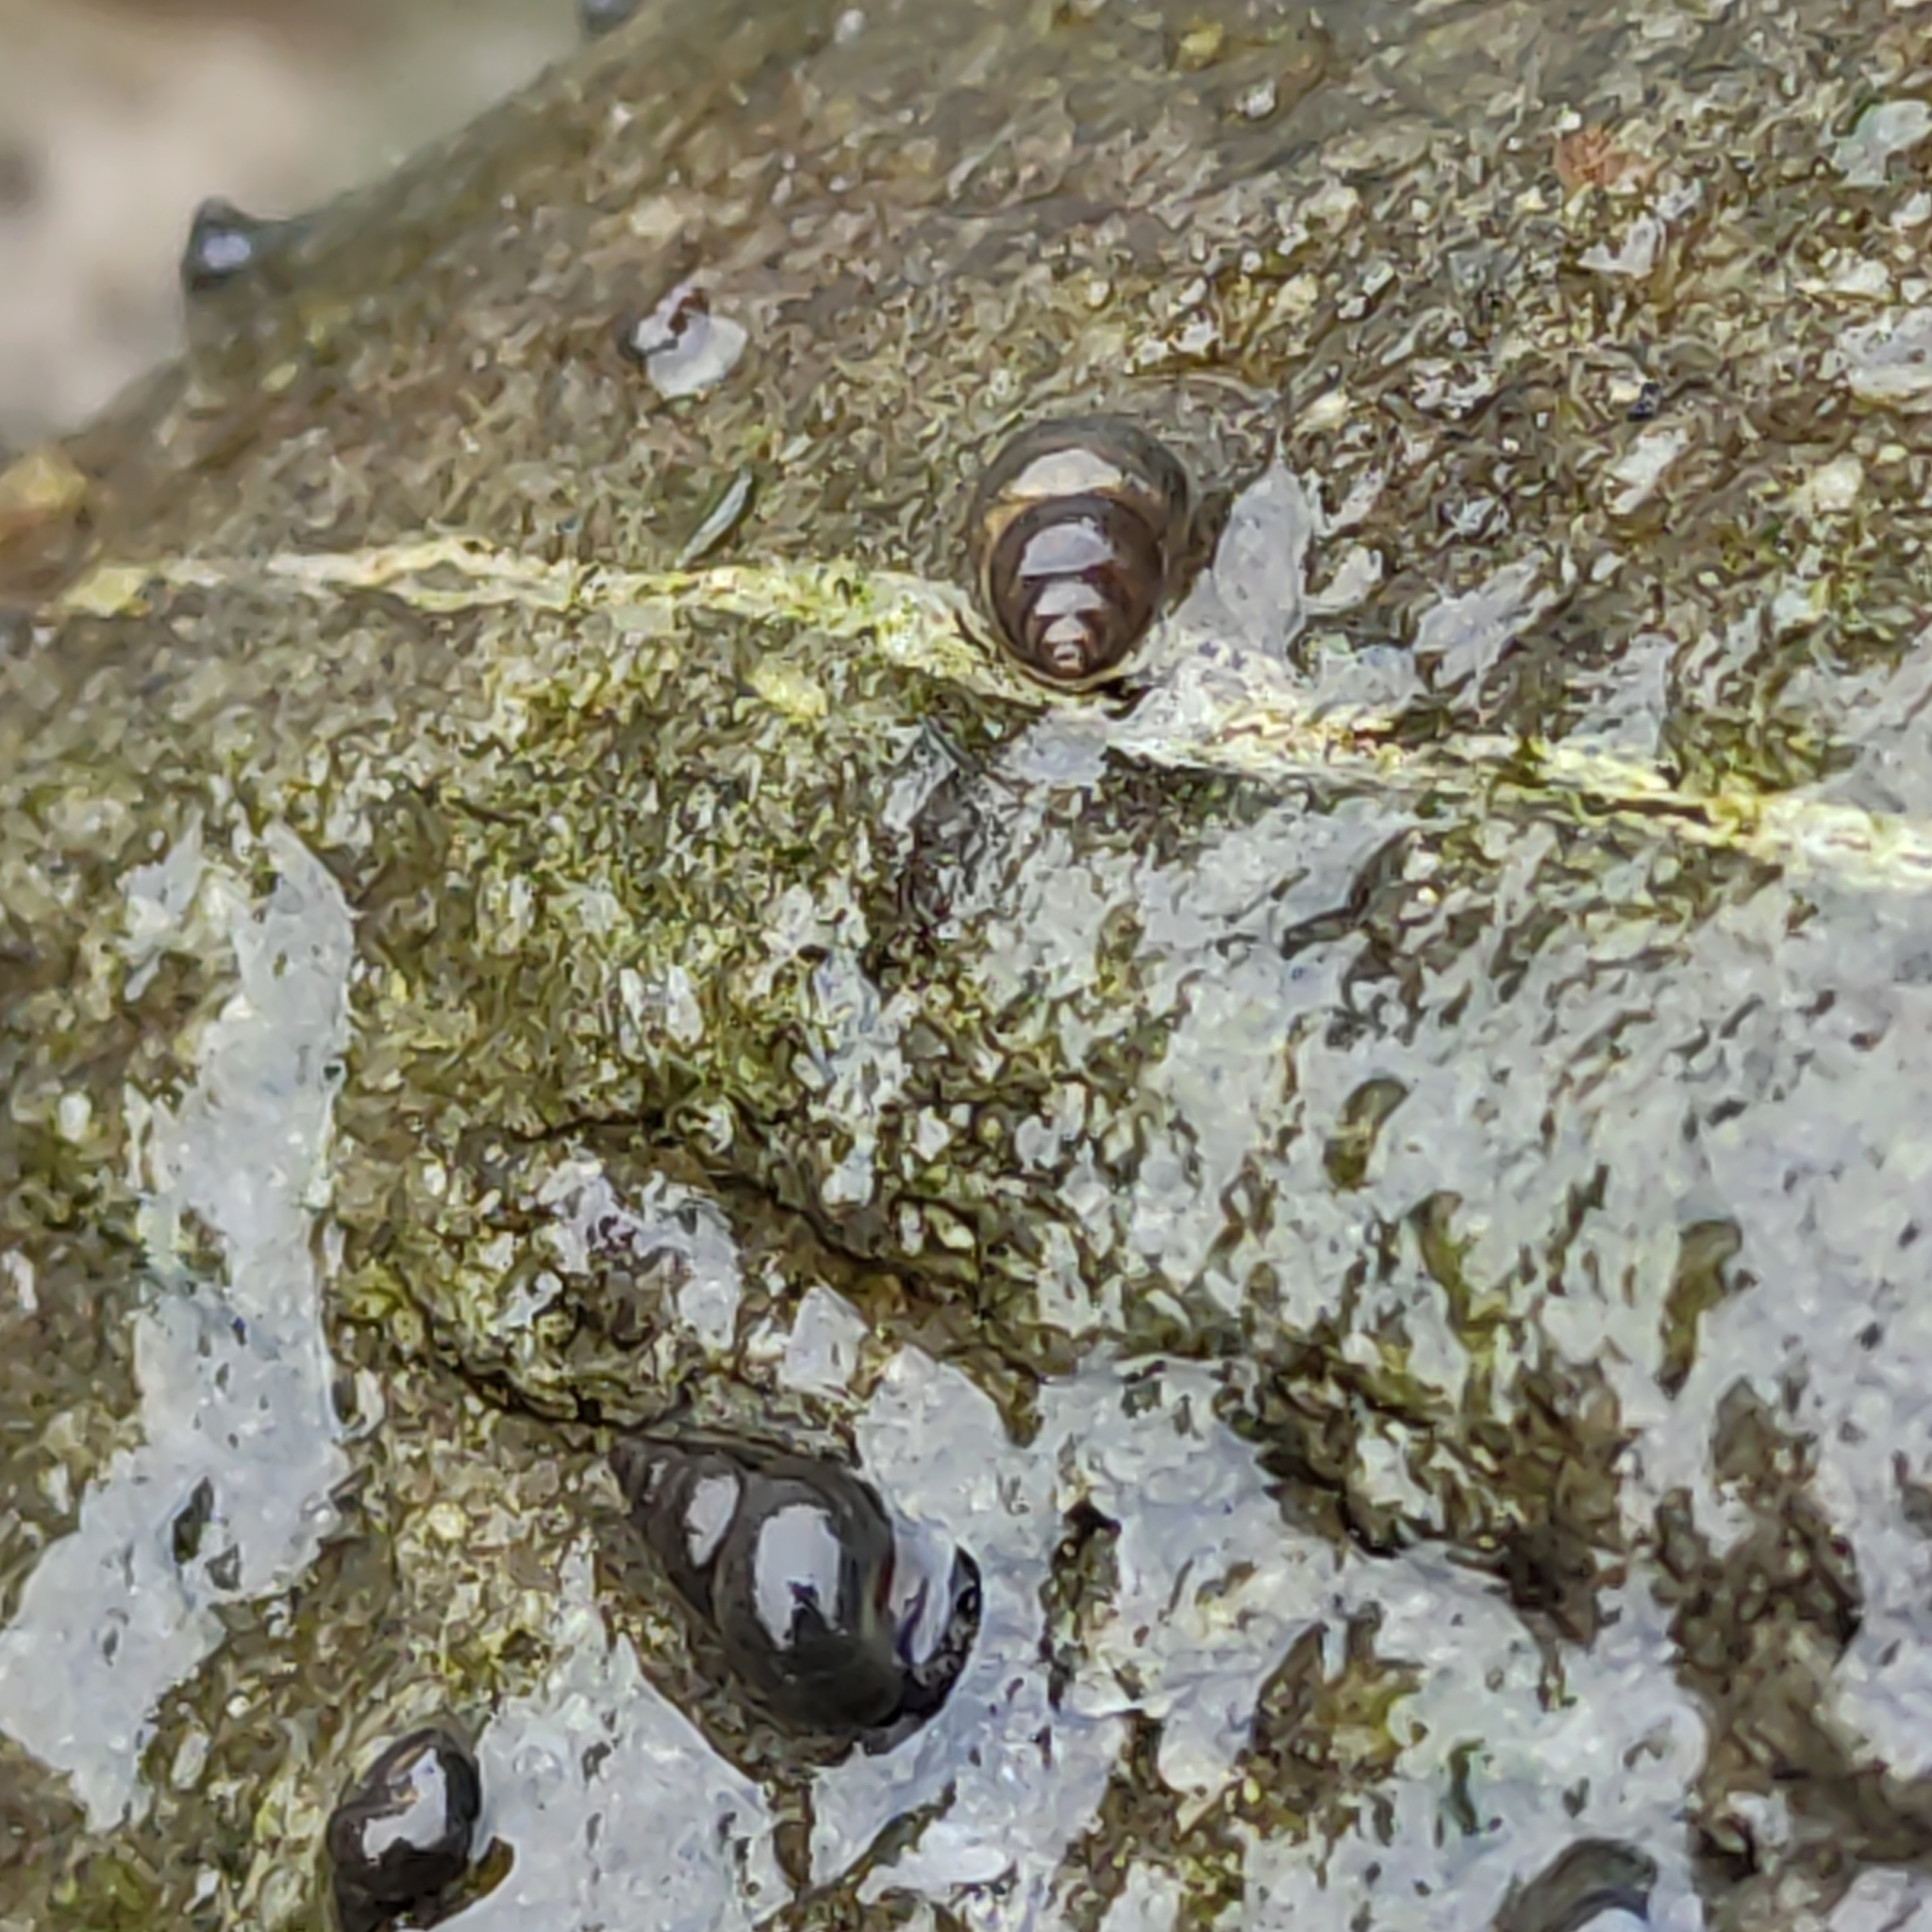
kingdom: Animalia
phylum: Mollusca
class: Gastropoda
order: Littorinimorpha
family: Tateidae
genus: Potamopyrgus
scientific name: Potamopyrgus antipodarum
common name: Jenkins' spire snail
